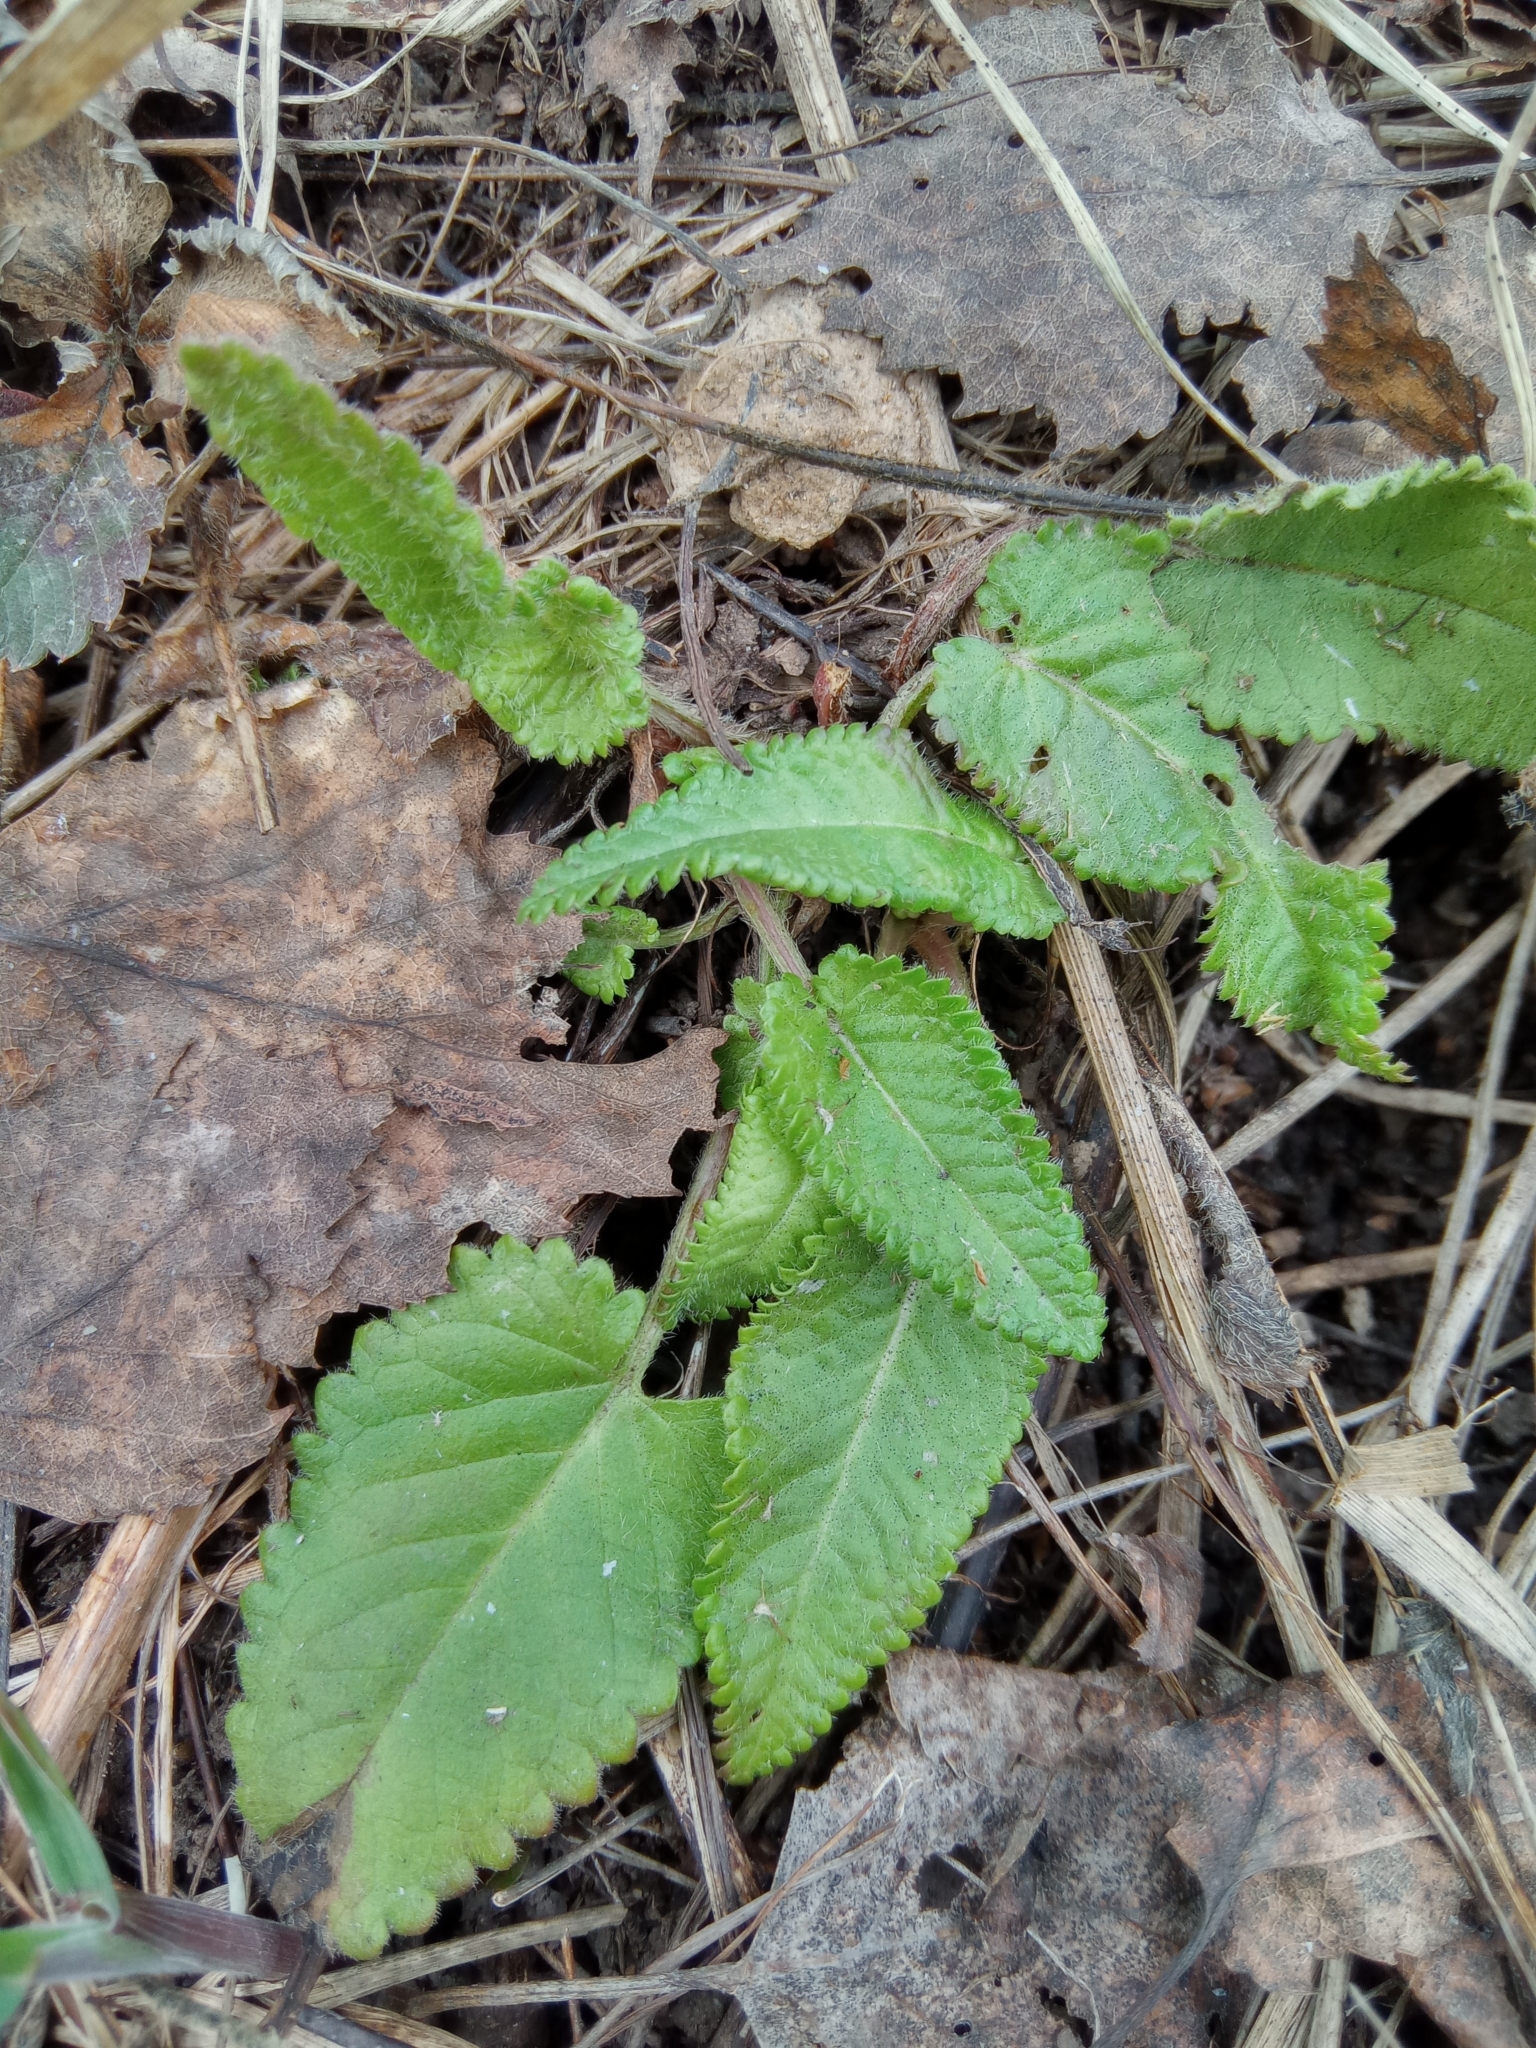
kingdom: Plantae
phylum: Tracheophyta
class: Magnoliopsida
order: Lamiales
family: Lamiaceae
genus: Betonica
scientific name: Betonica officinalis
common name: Bishop's-wort
